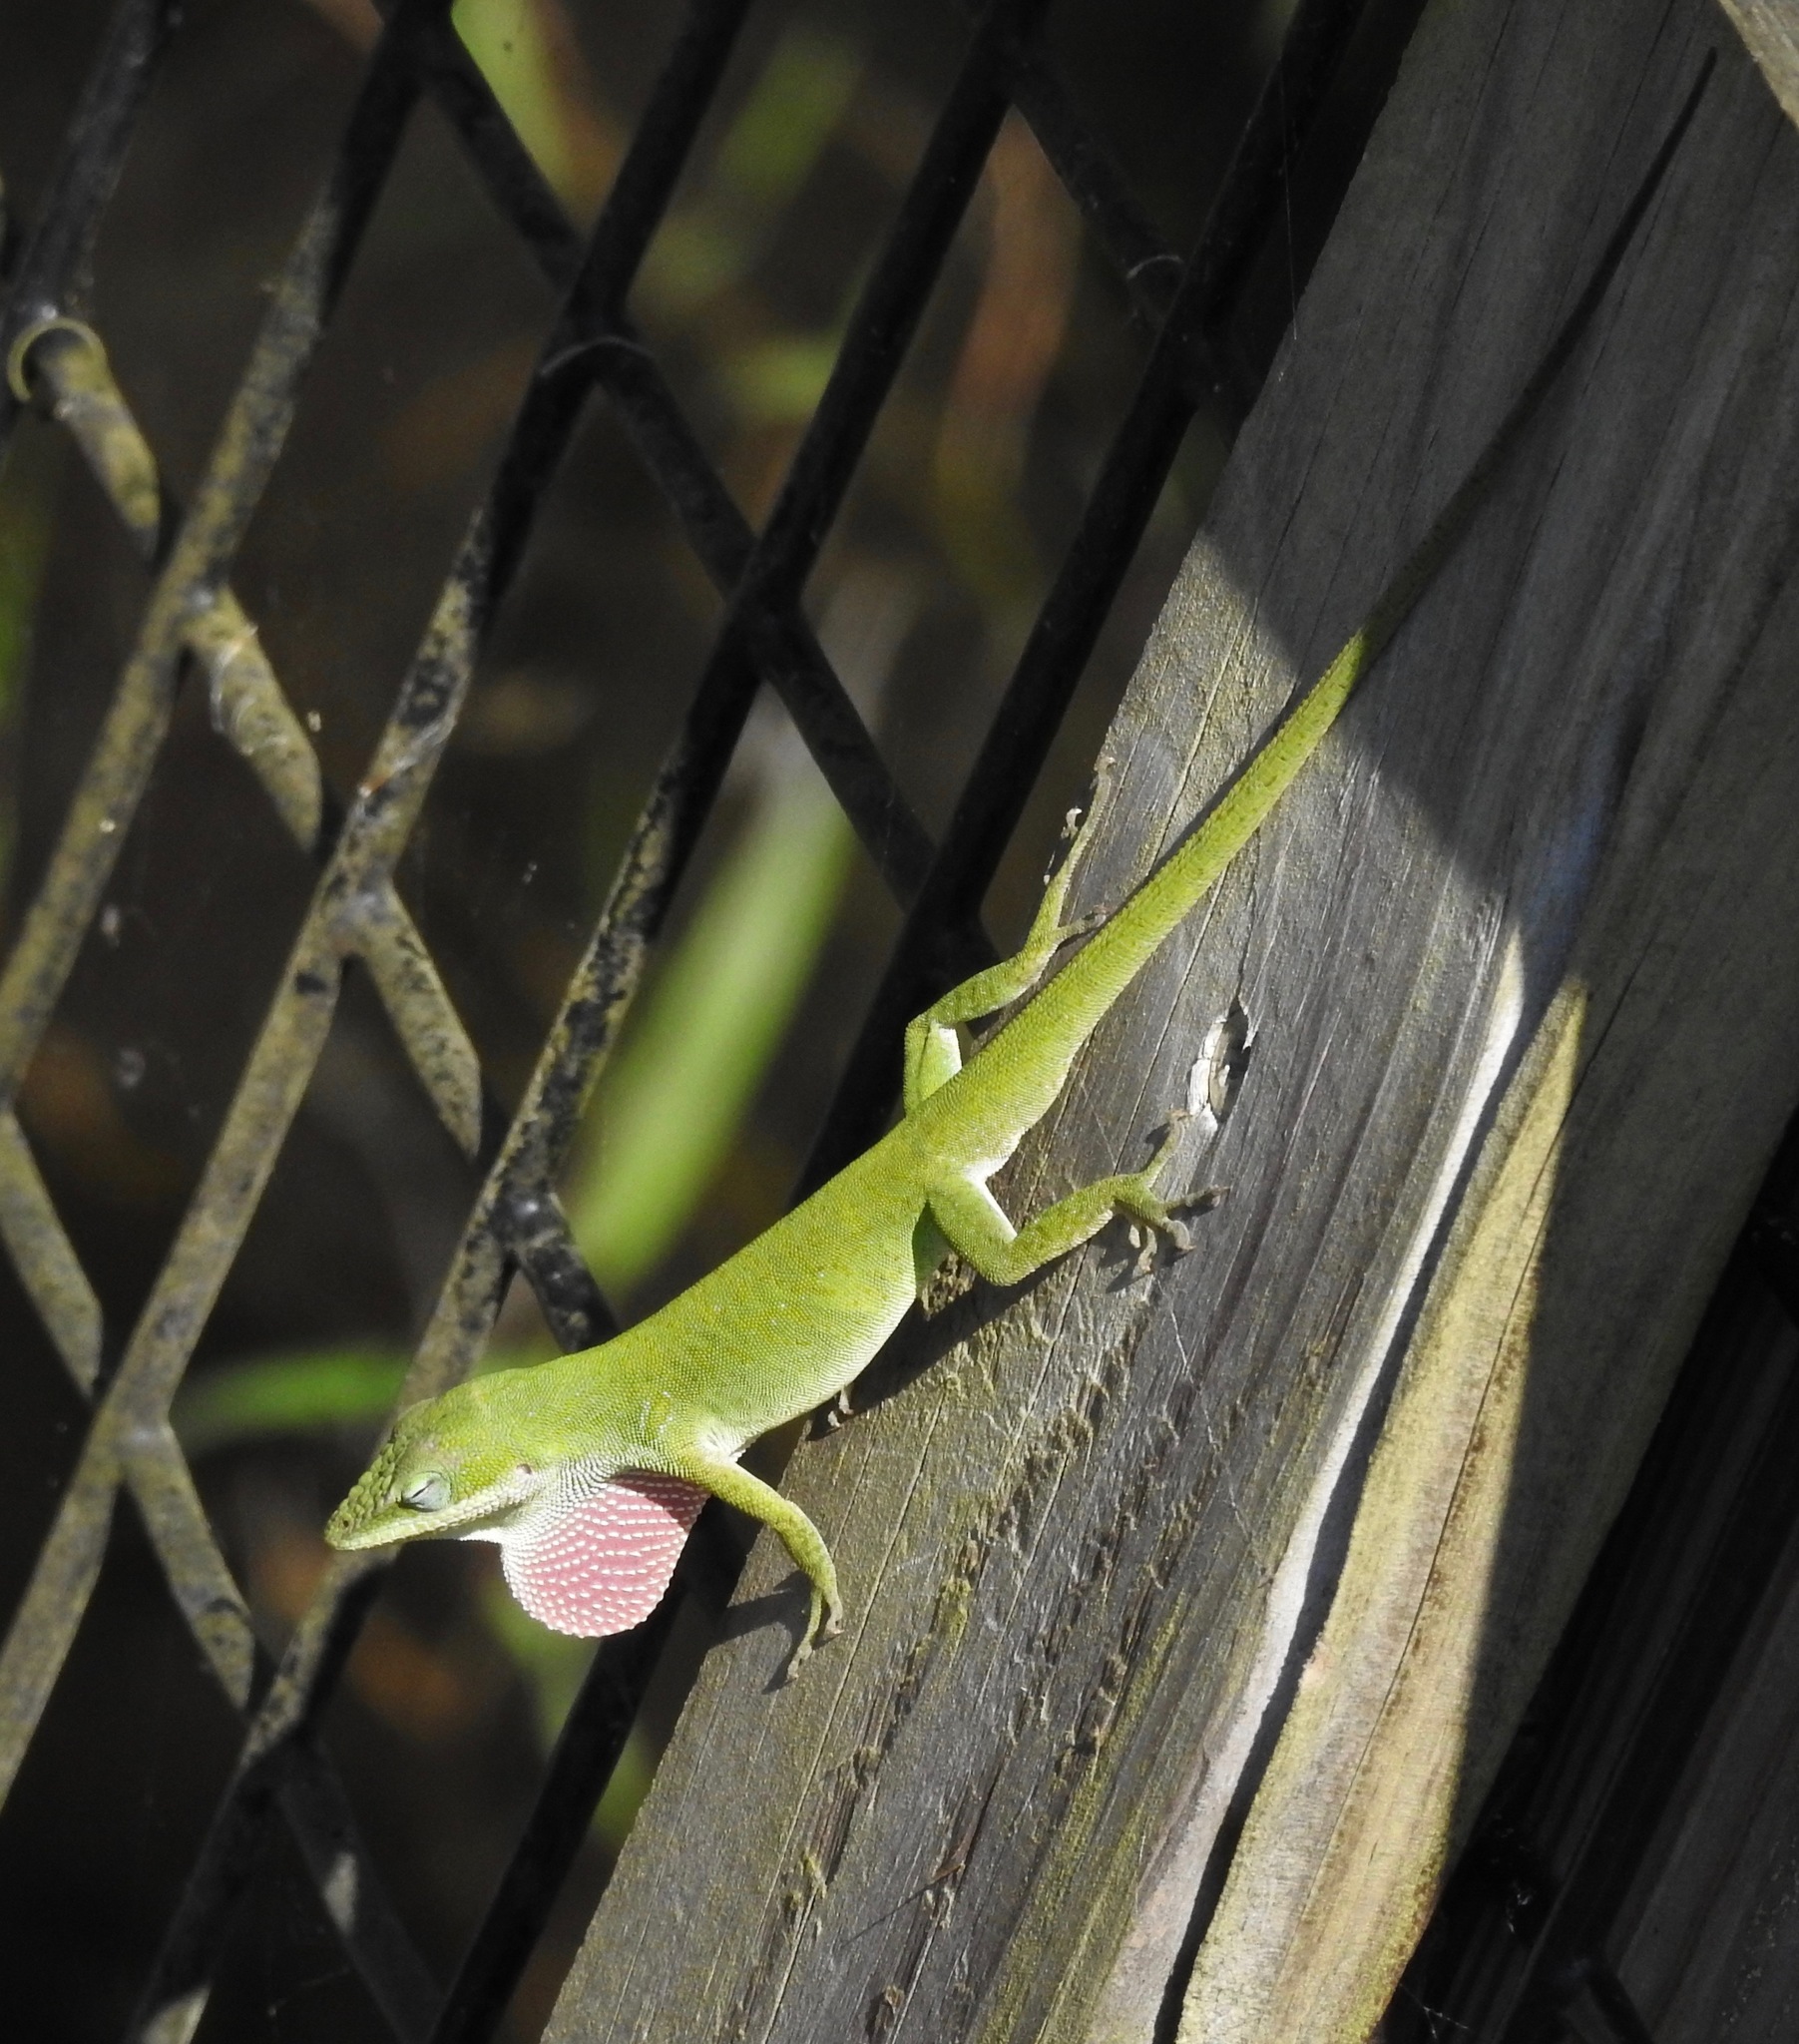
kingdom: Animalia
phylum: Chordata
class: Squamata
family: Dactyloidae
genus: Anolis
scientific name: Anolis carolinensis
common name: Green anole
